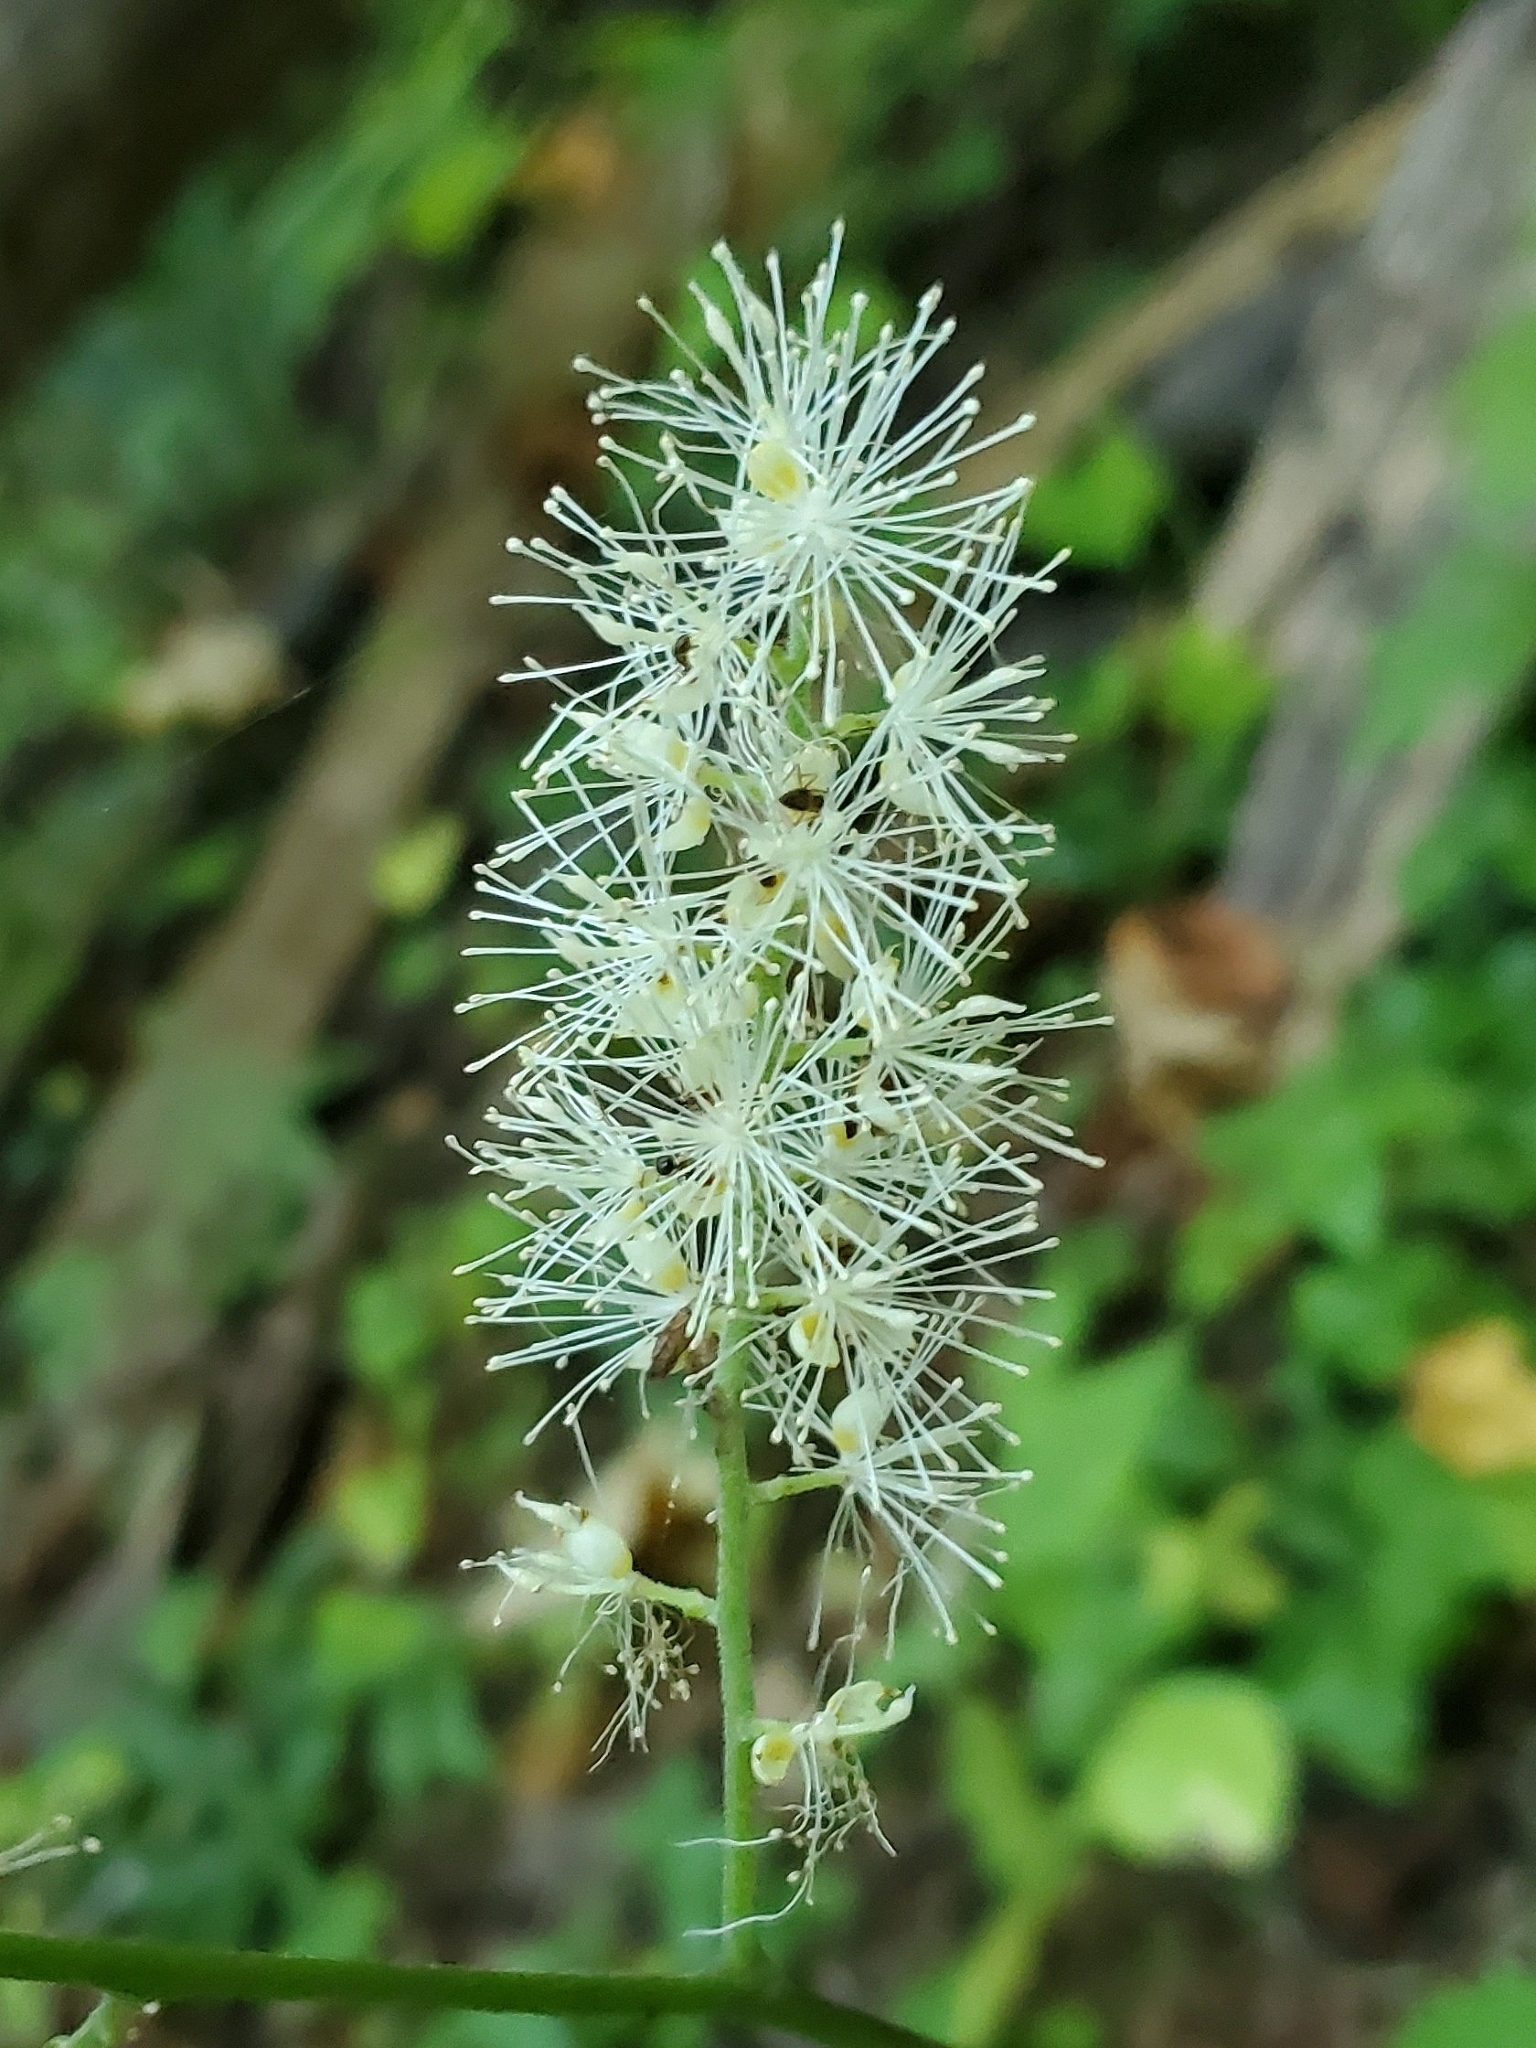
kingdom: Plantae
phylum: Tracheophyta
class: Magnoliopsida
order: Ranunculales
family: Ranunculaceae
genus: Actaea
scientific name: Actaea racemosa
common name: Black cohosh
